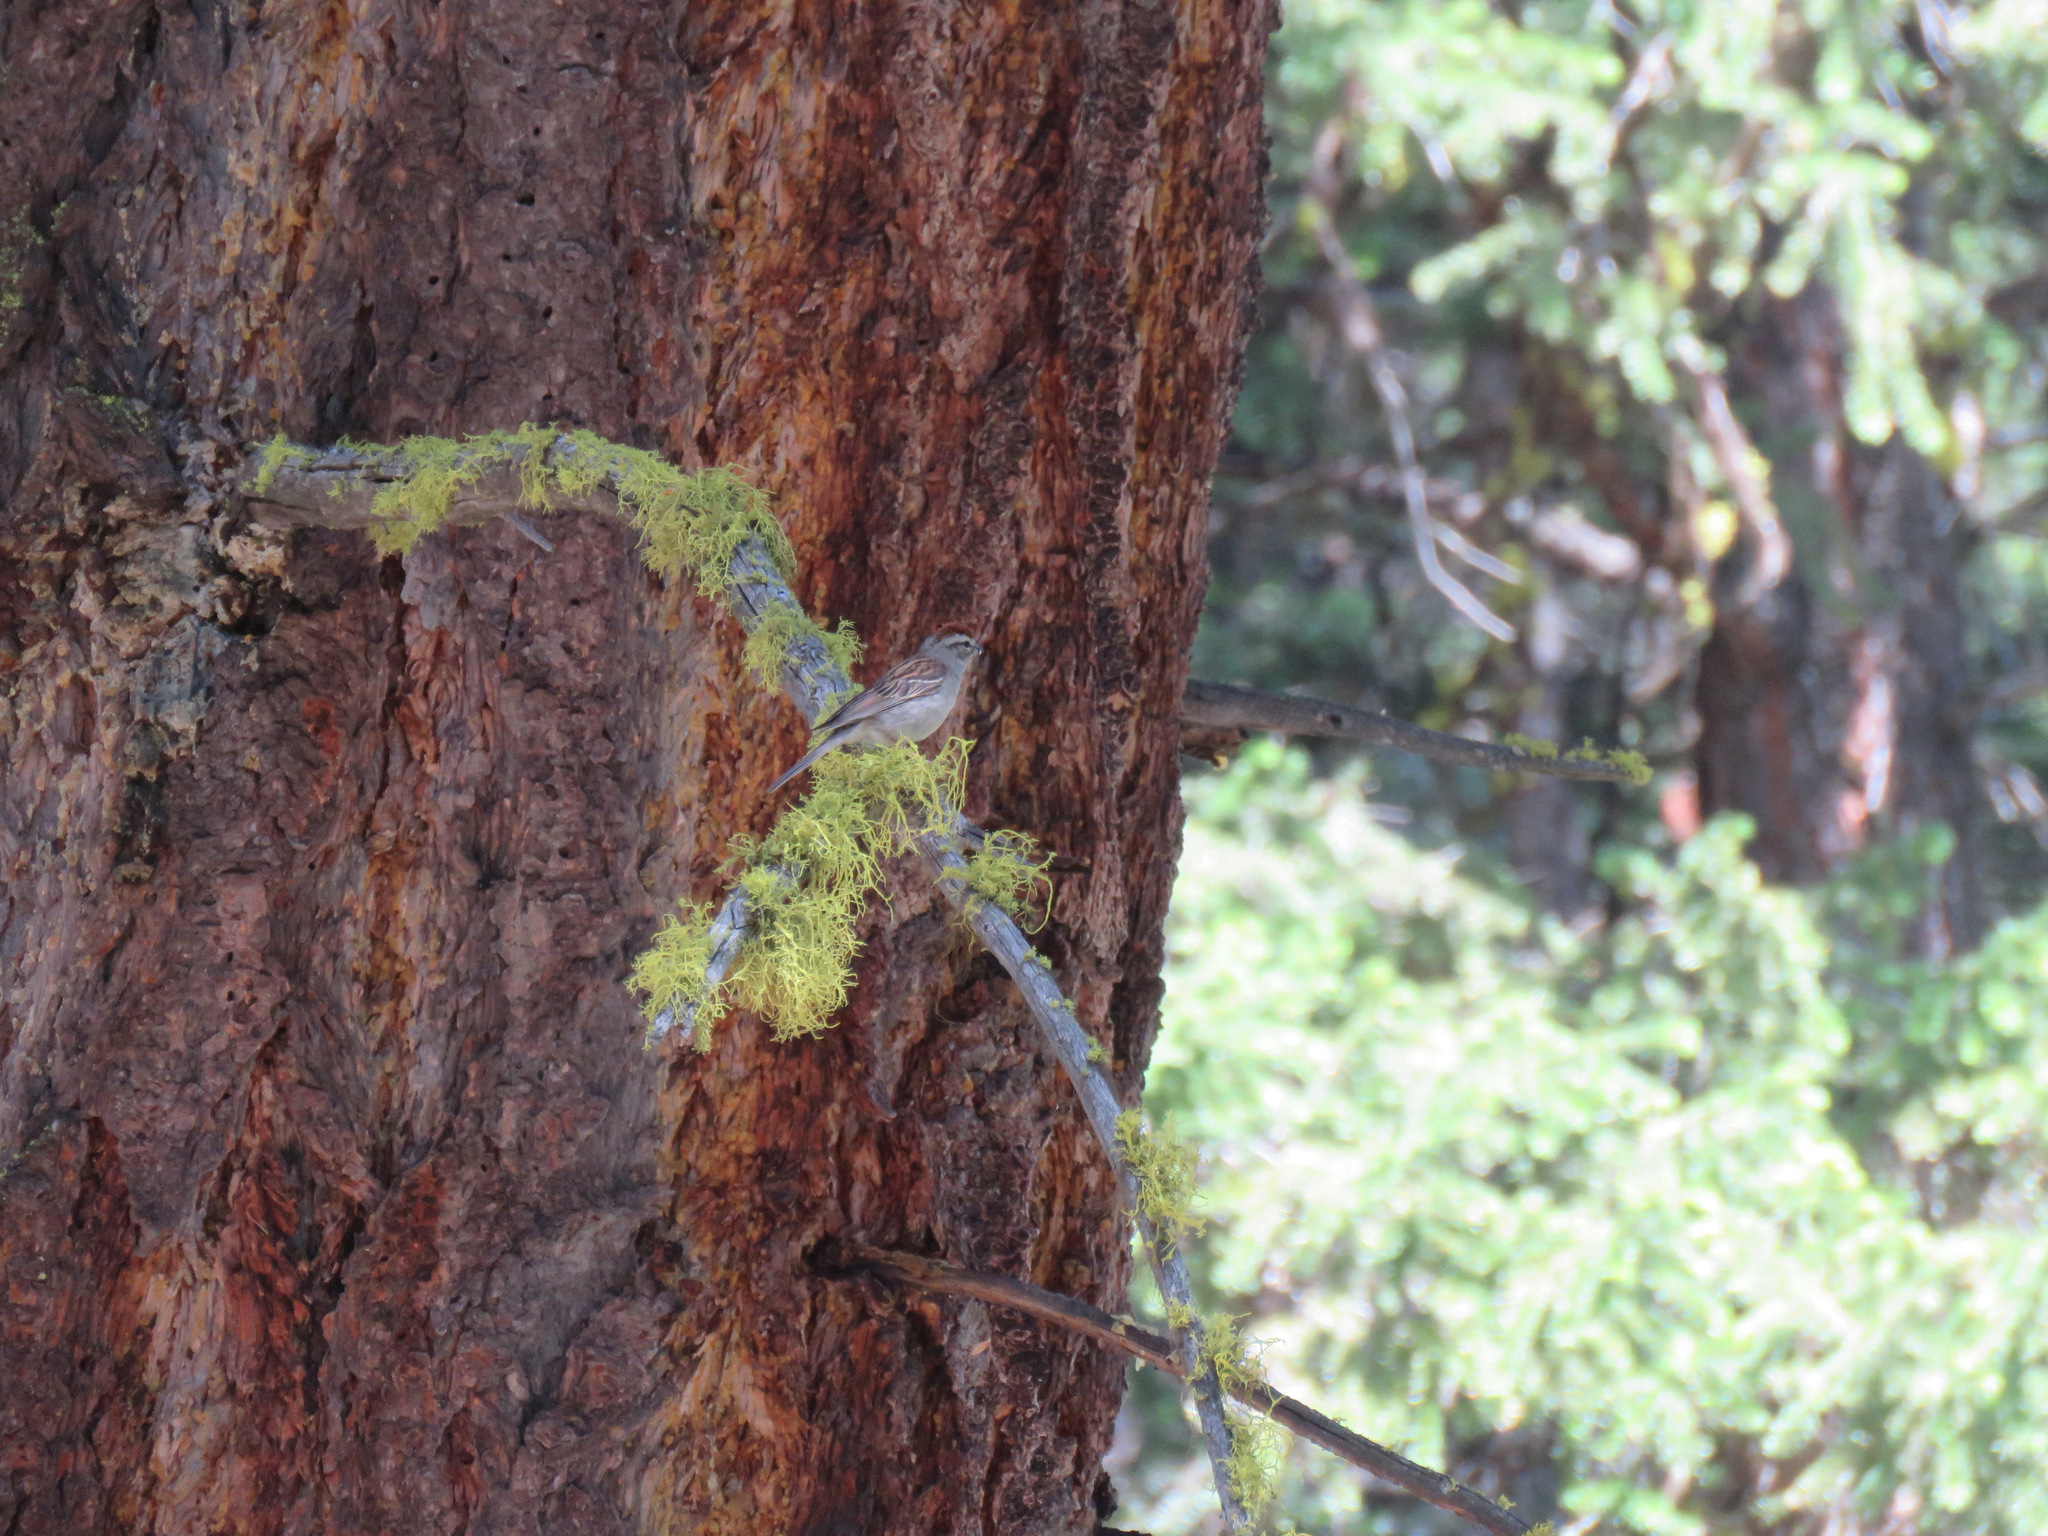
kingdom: Animalia
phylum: Chordata
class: Aves
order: Passeriformes
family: Passerellidae
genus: Spizella
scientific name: Spizella passerina
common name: Chipping sparrow
